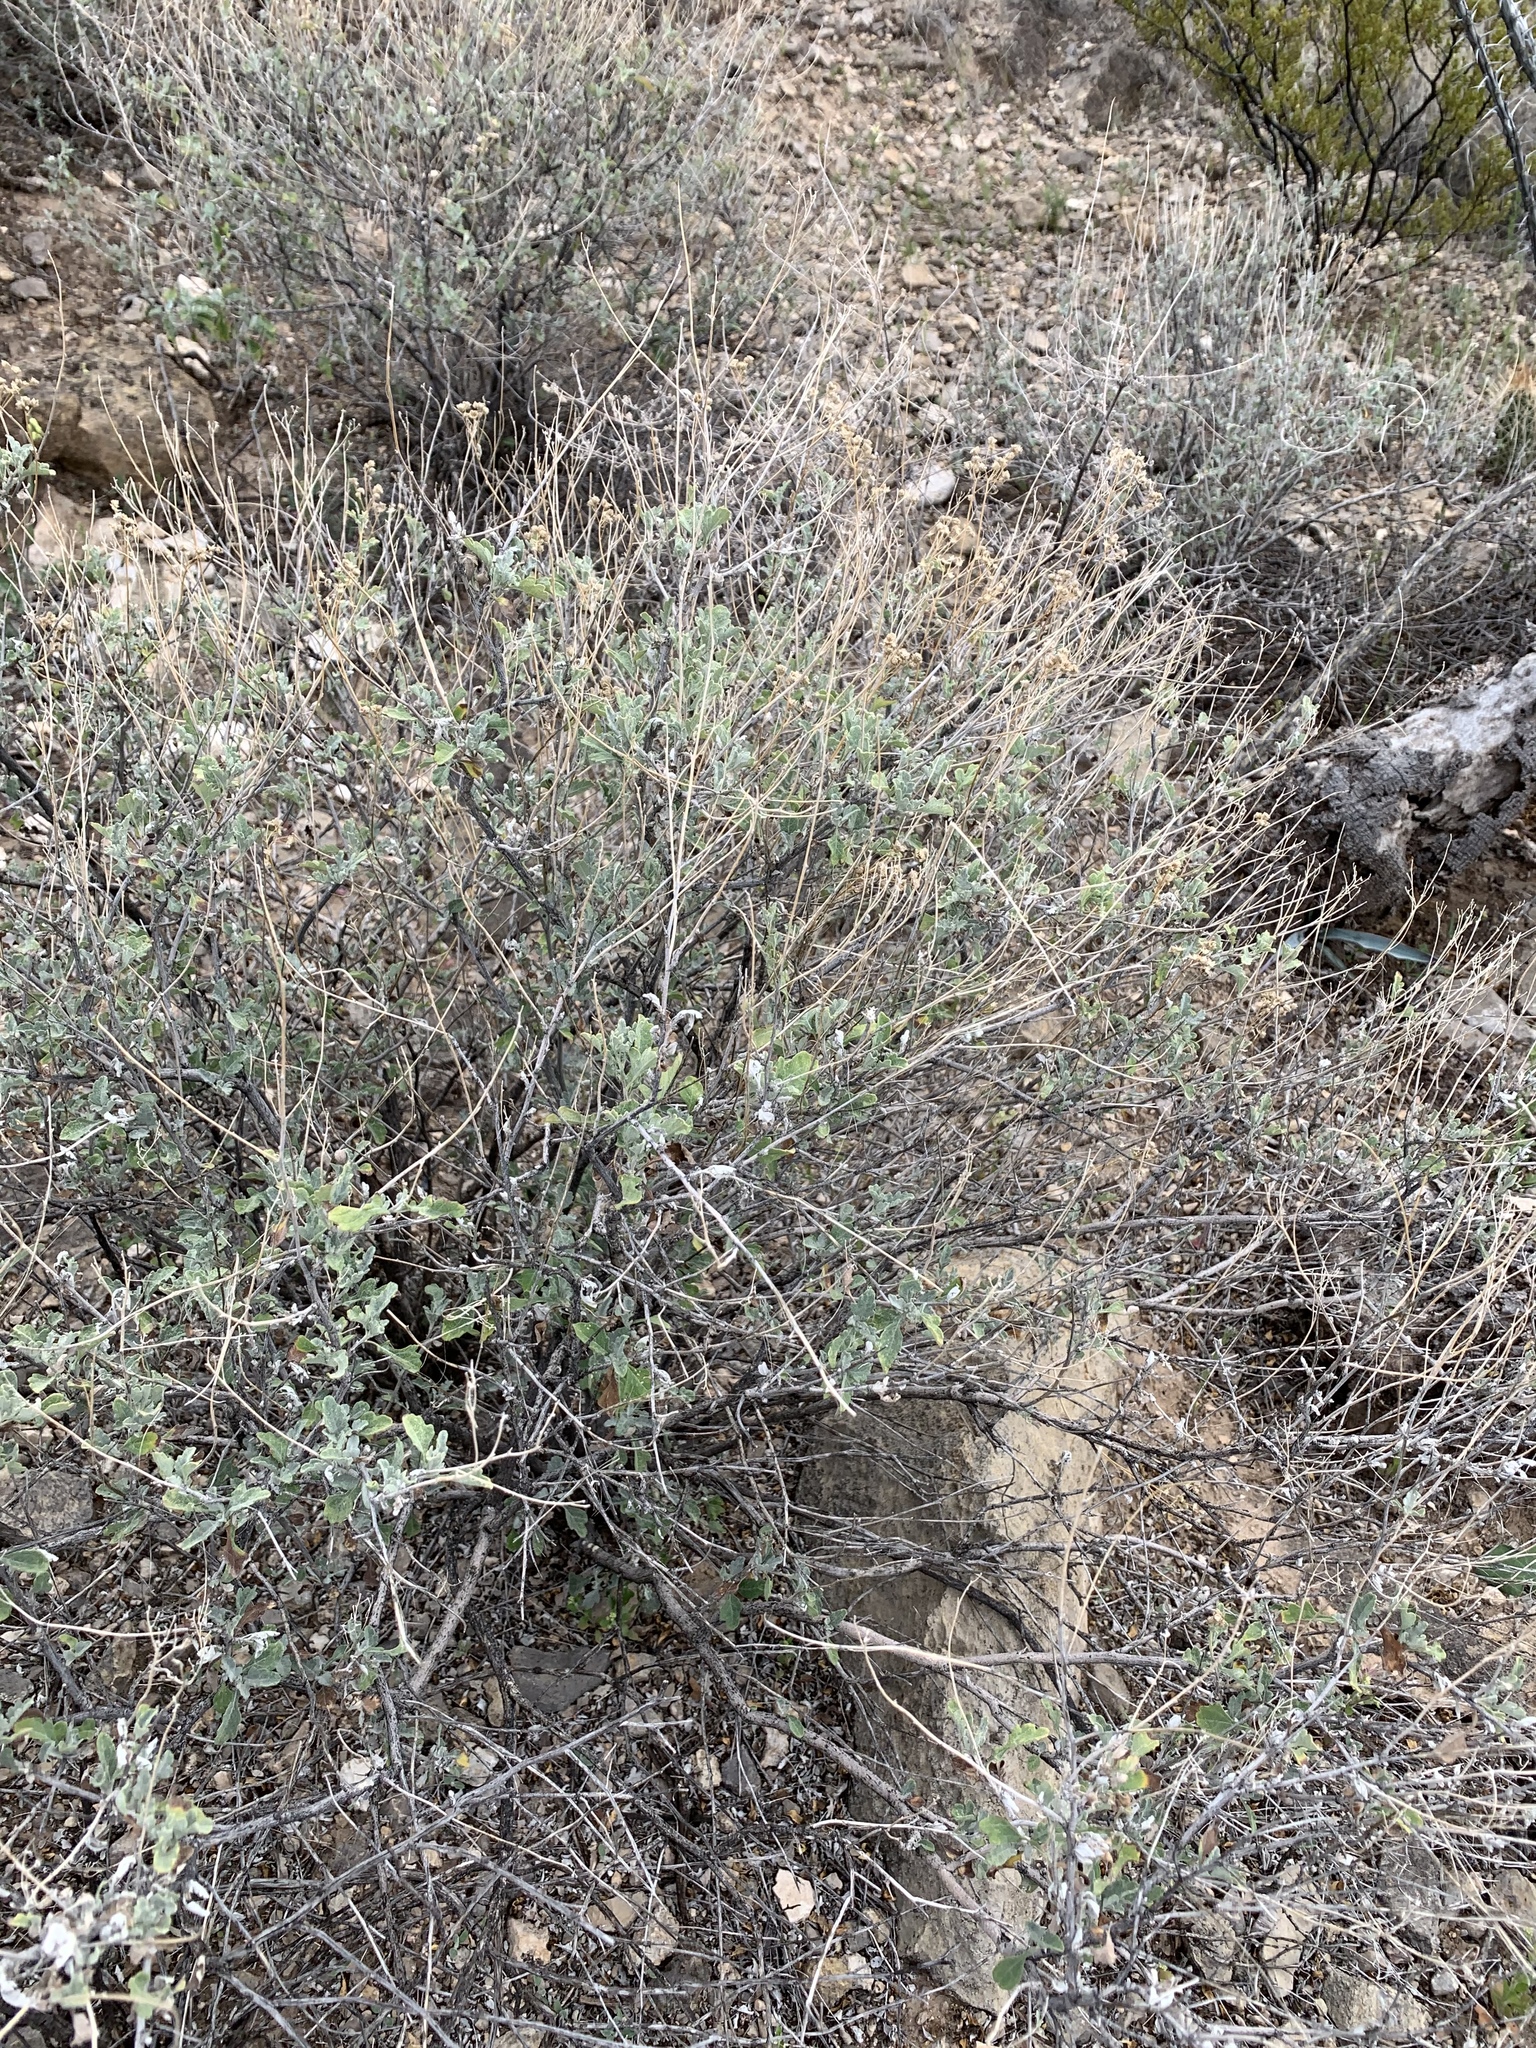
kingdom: Plantae
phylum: Tracheophyta
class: Magnoliopsida
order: Asterales
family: Asteraceae
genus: Parthenium
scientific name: Parthenium incanum
